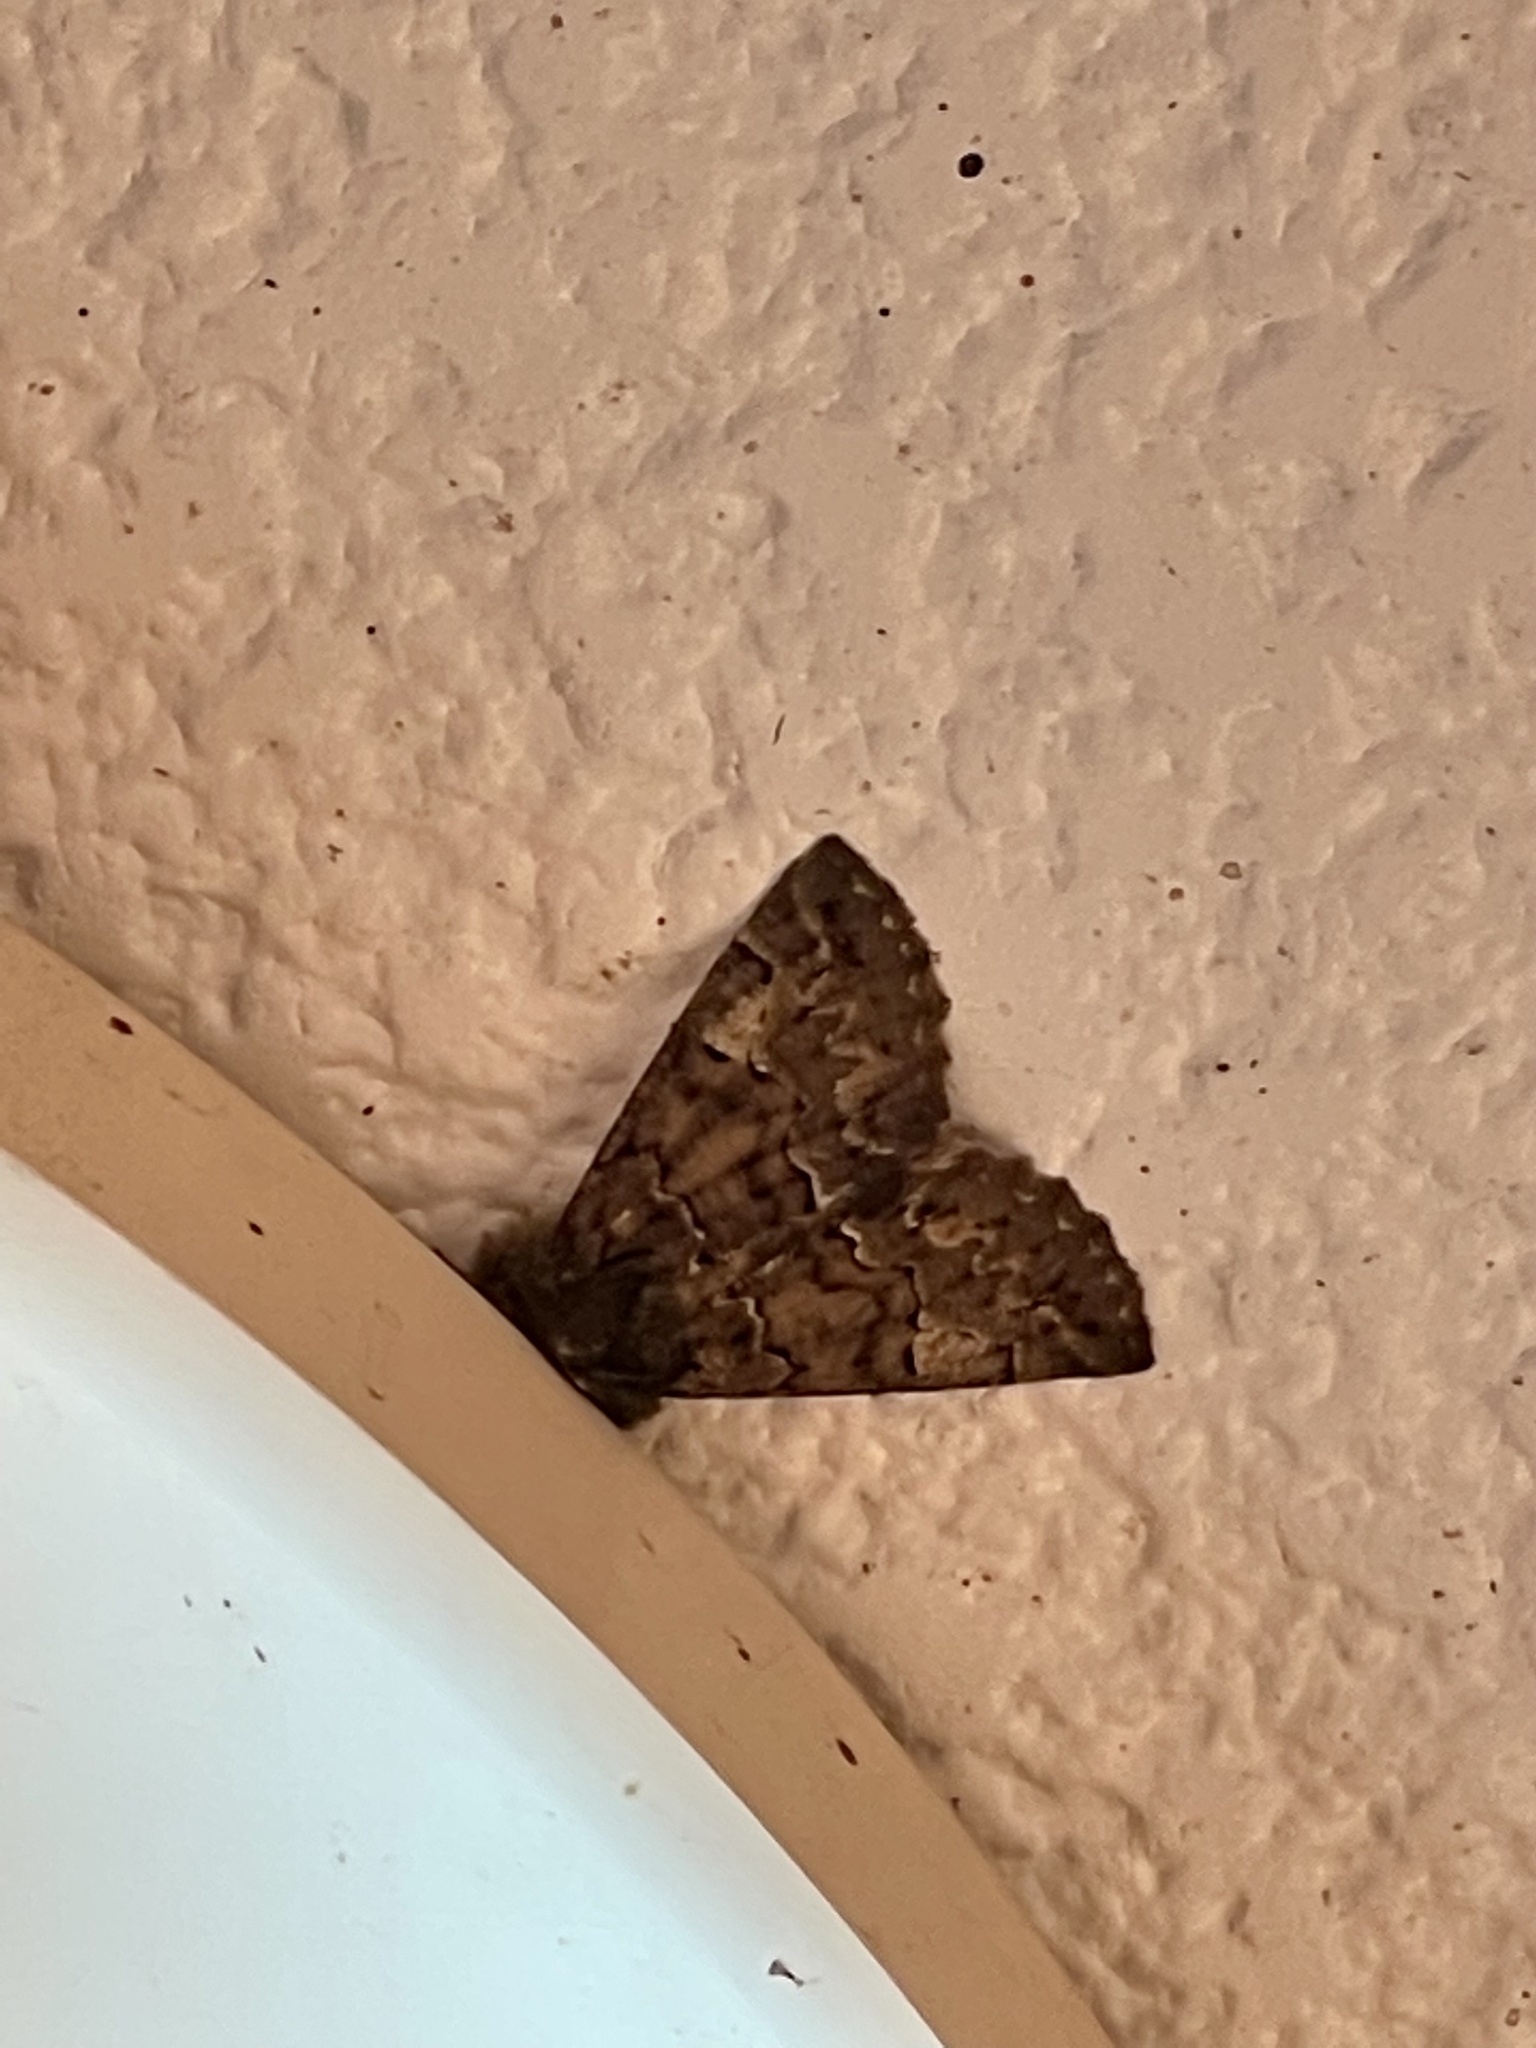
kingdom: Animalia
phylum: Arthropoda
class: Insecta
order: Lepidoptera
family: Geometridae
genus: Pachyligia
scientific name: Pachyligia dolosa
